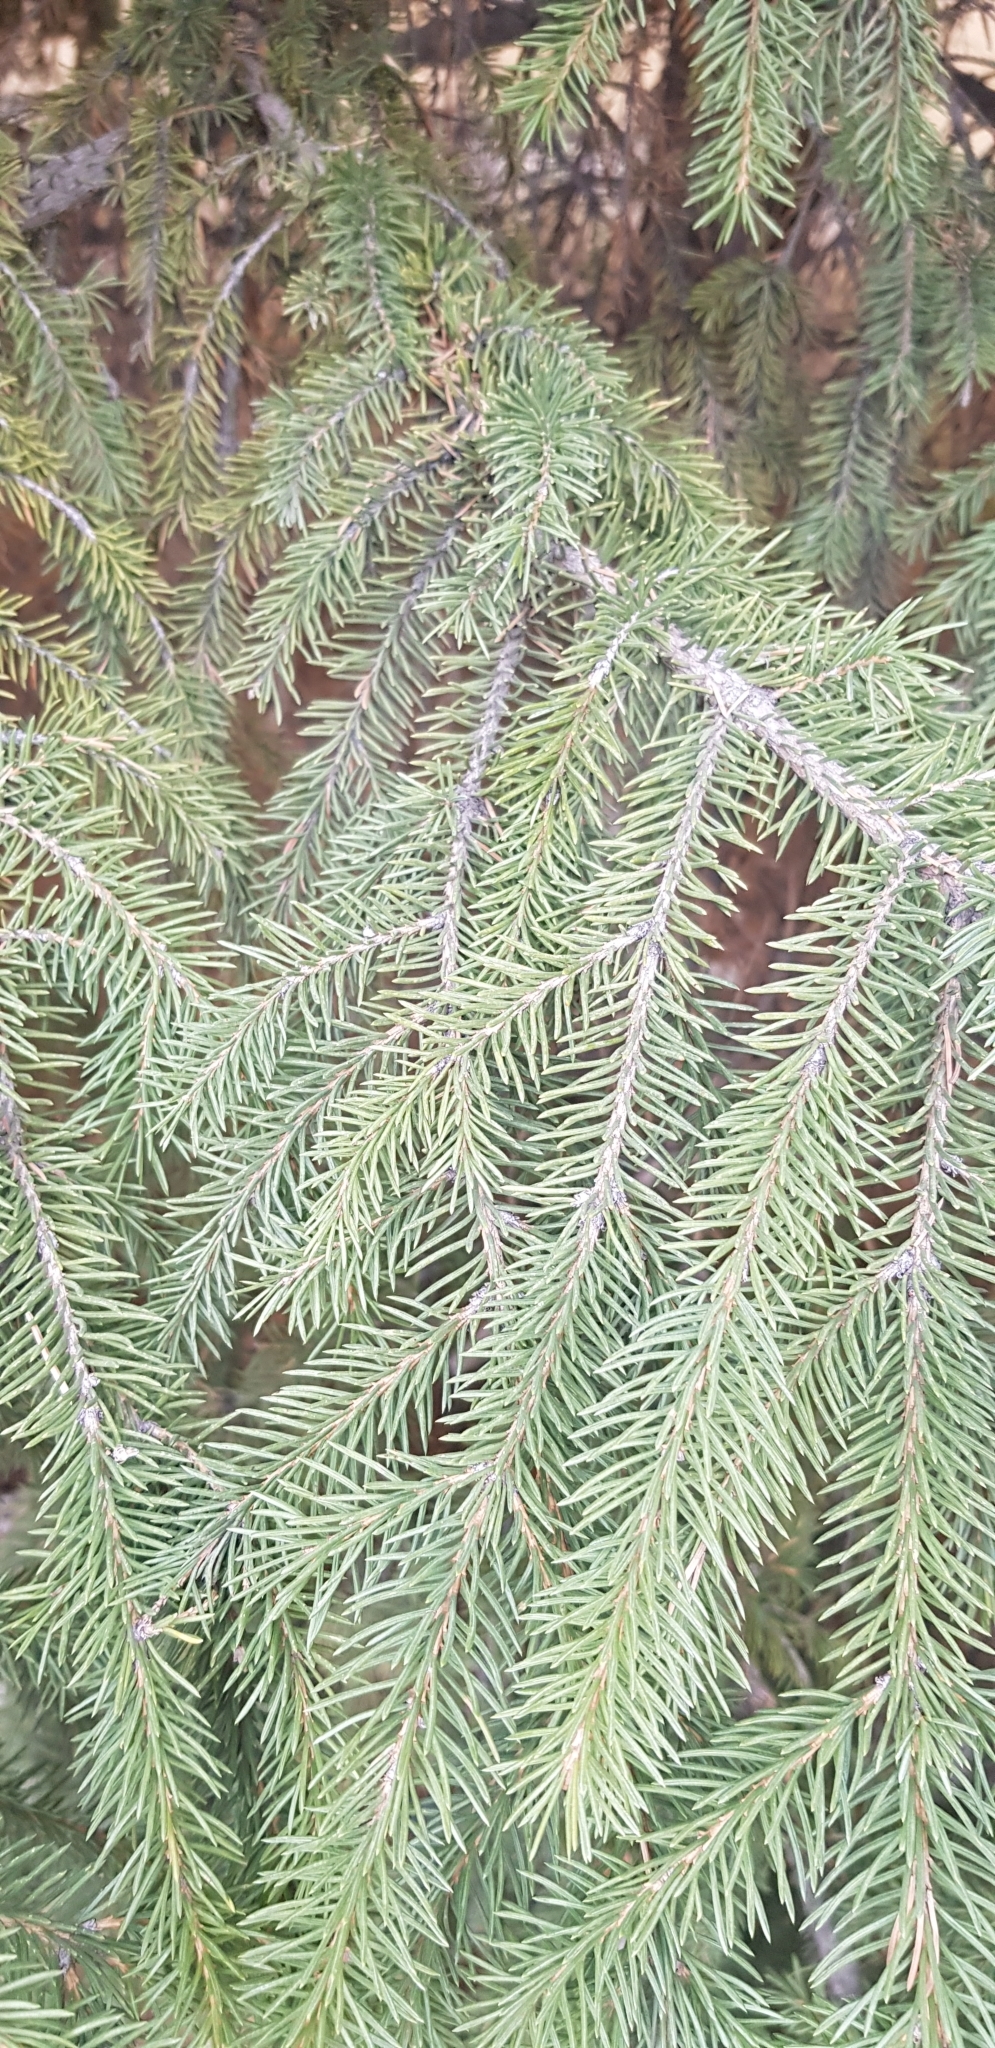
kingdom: Plantae
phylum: Tracheophyta
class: Pinopsida
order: Pinales
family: Pinaceae
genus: Picea
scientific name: Picea obovata
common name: Siberian spruce
